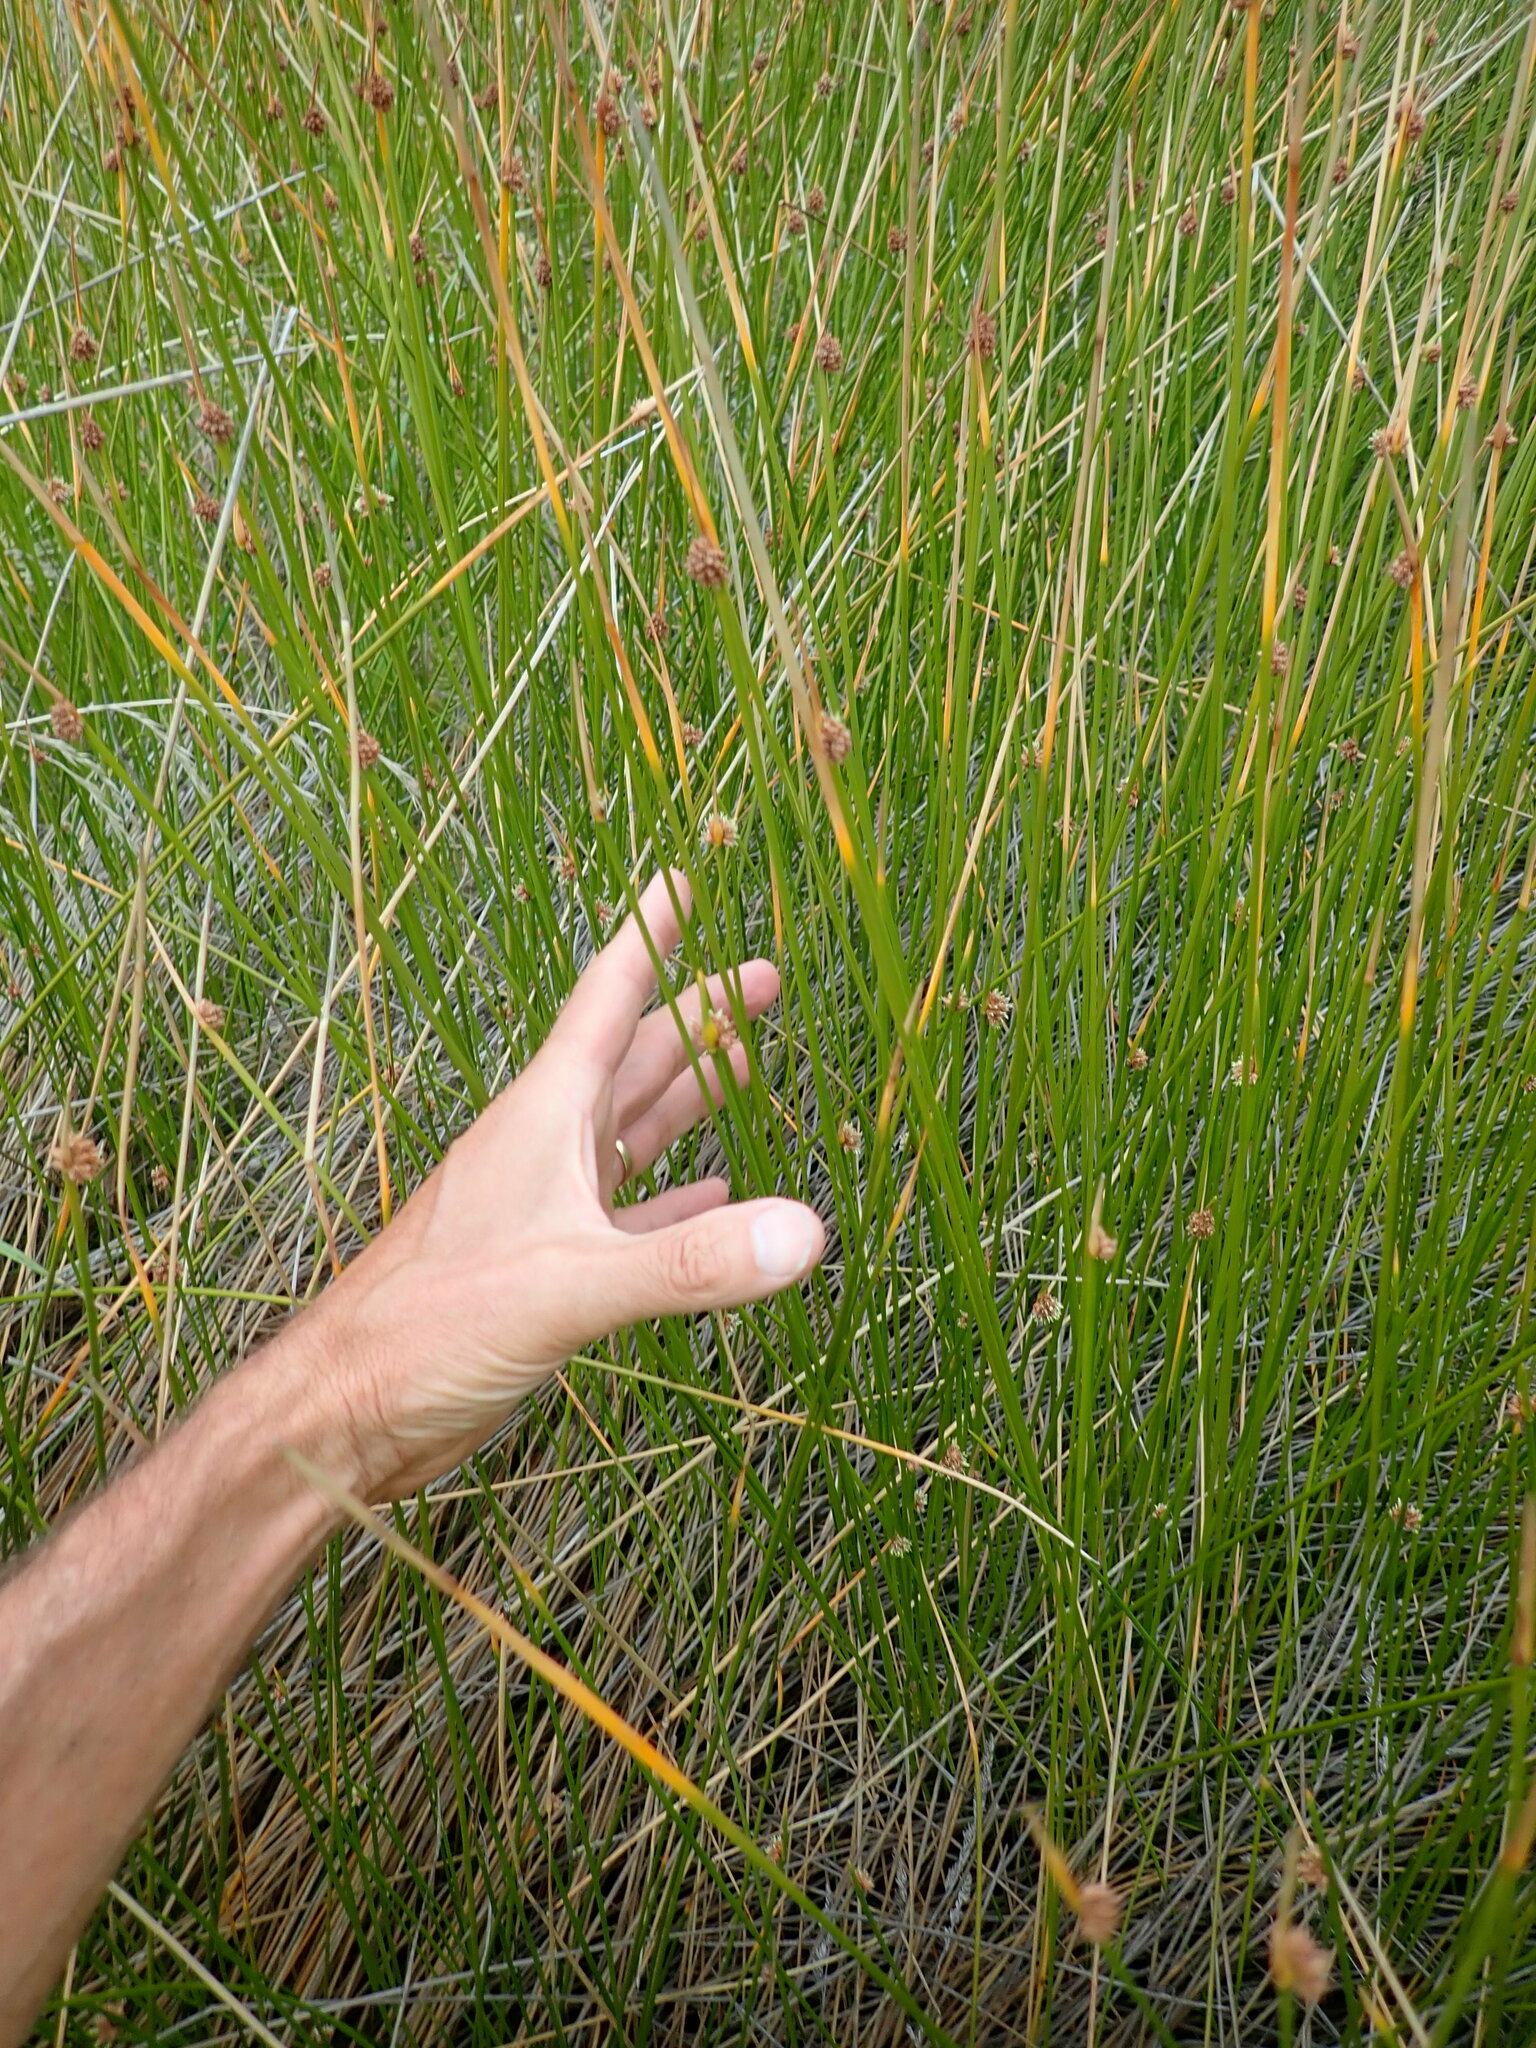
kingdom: Plantae
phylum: Tracheophyta
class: Liliopsida
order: Poales
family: Cyperaceae
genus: Ficinia
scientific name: Ficinia nodosa
